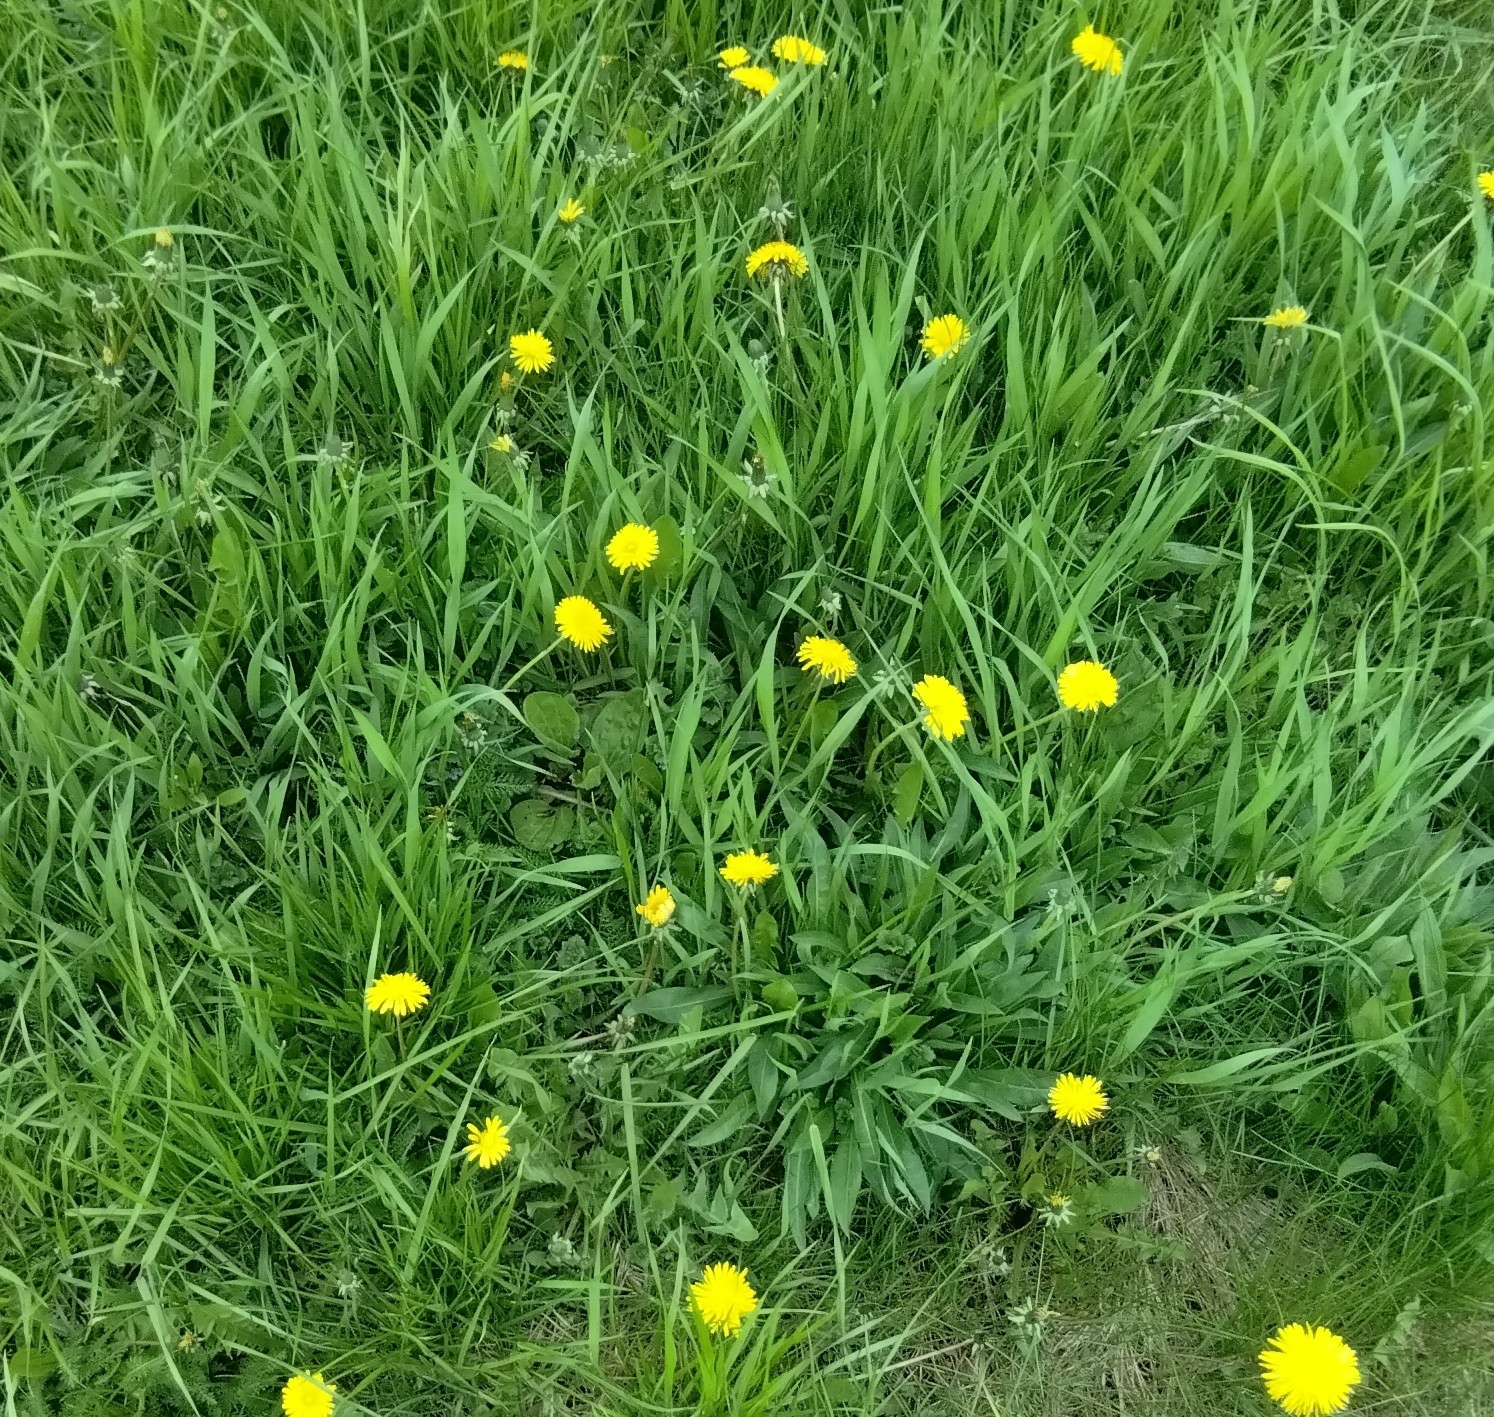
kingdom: Plantae
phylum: Tracheophyta
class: Magnoliopsida
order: Asterales
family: Asteraceae
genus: Taraxacum
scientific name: Taraxacum officinale
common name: Common dandelion
